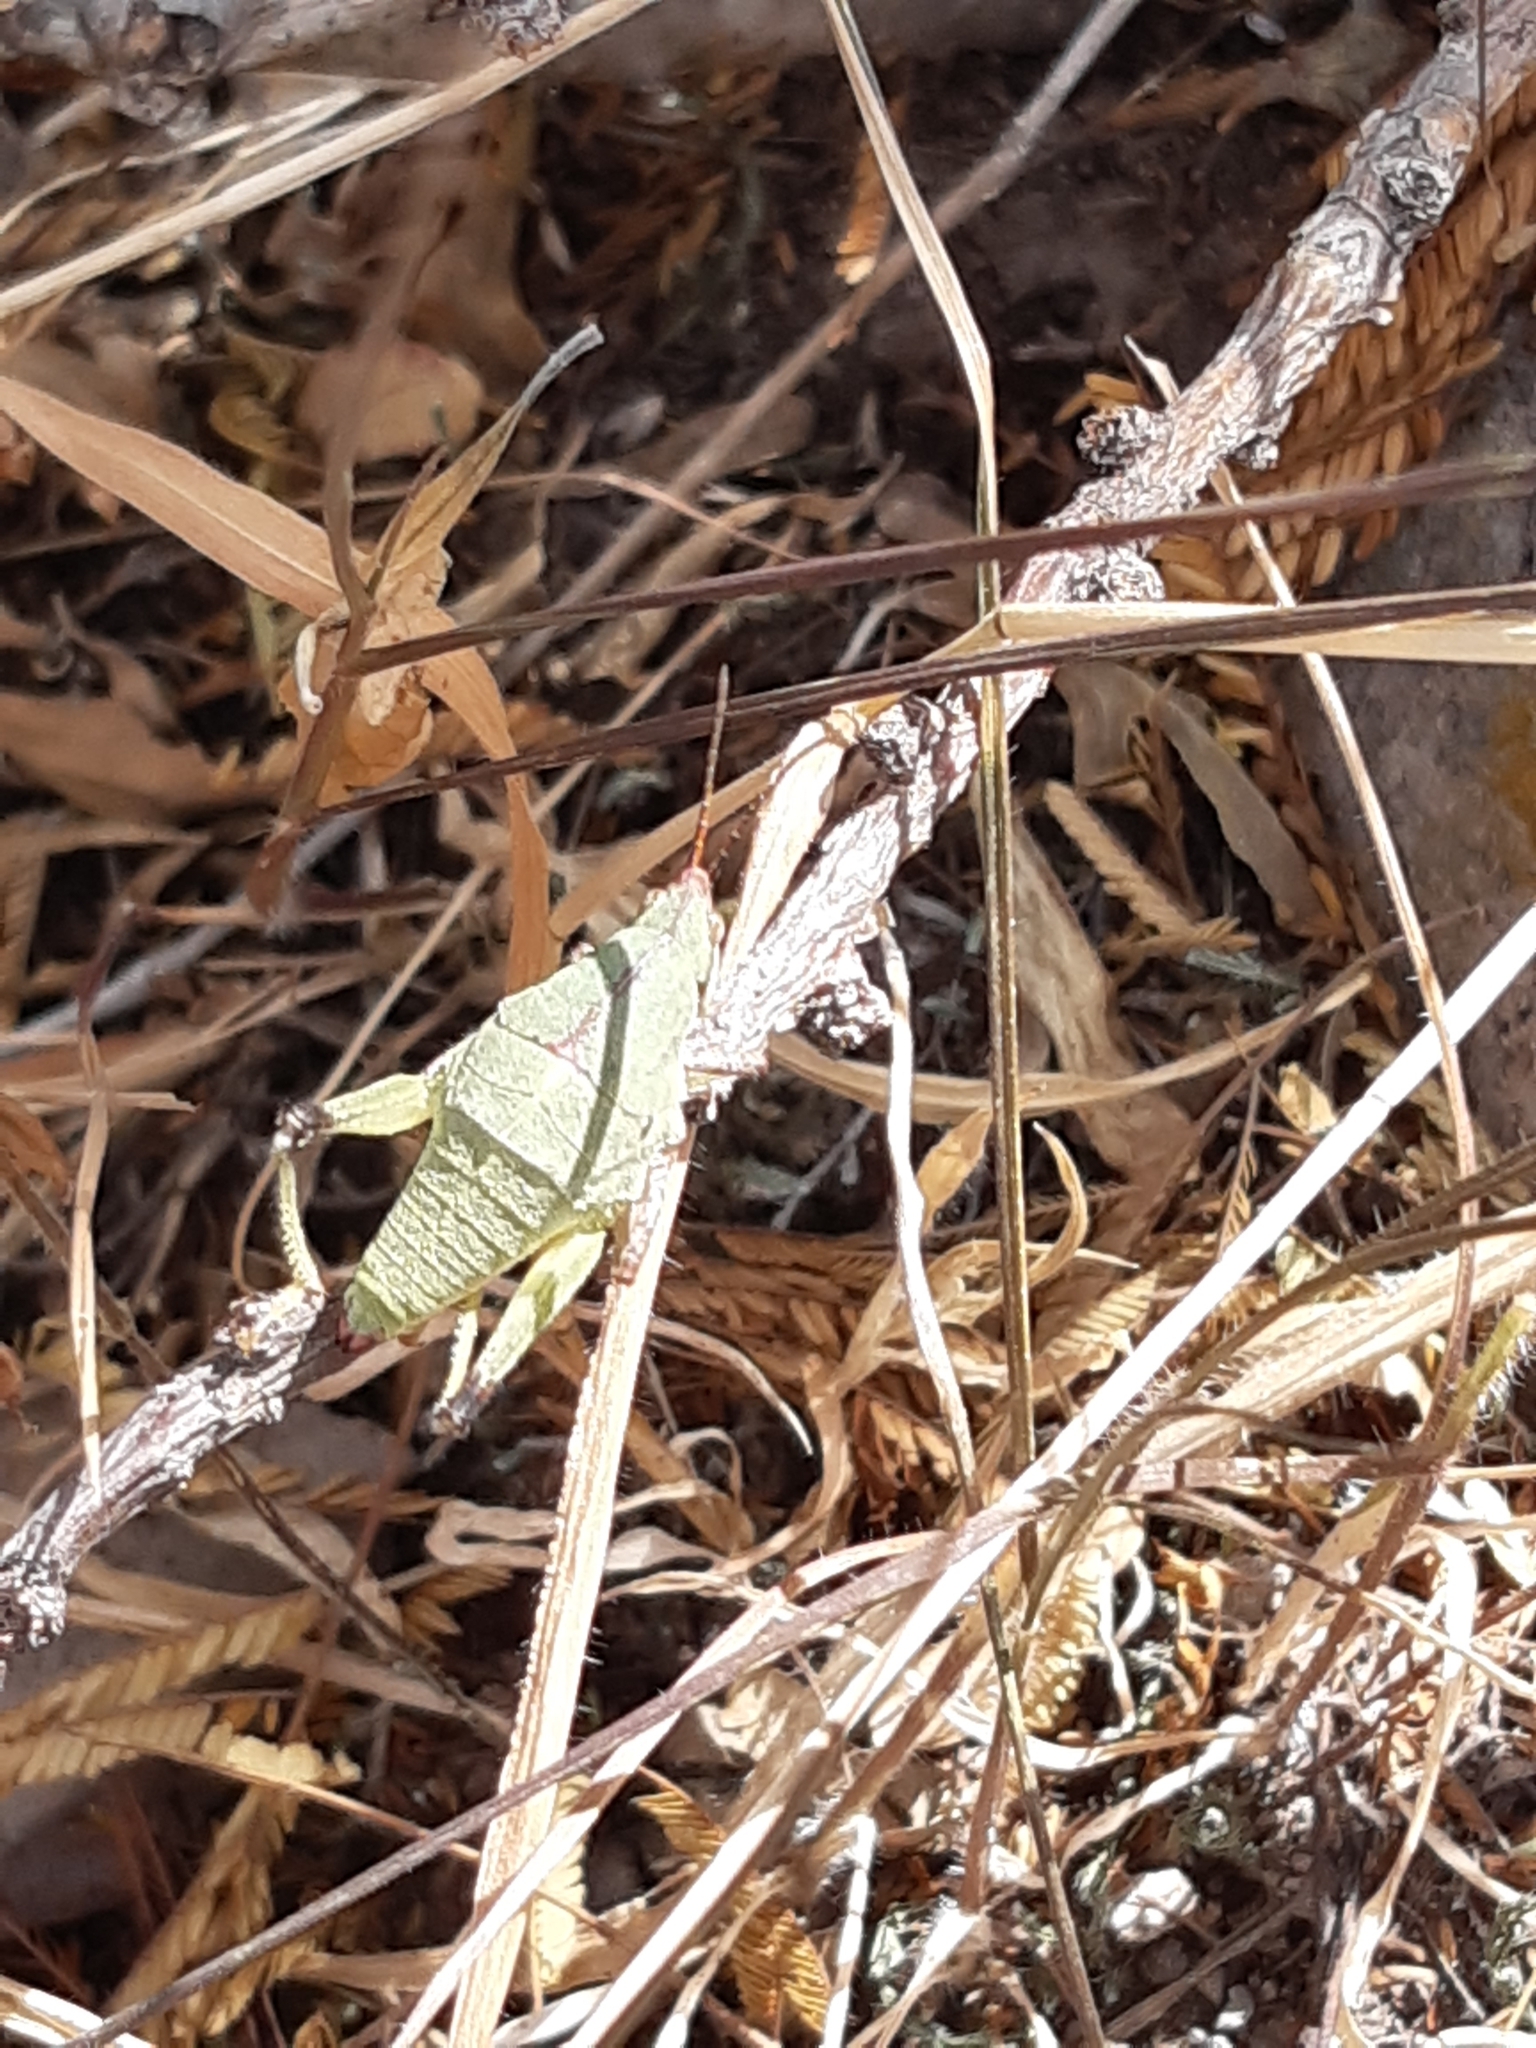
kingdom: Animalia
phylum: Arthropoda
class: Insecta
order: Orthoptera
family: Pyrgomorphidae
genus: Sphenarium
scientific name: Sphenarium purpurascens
